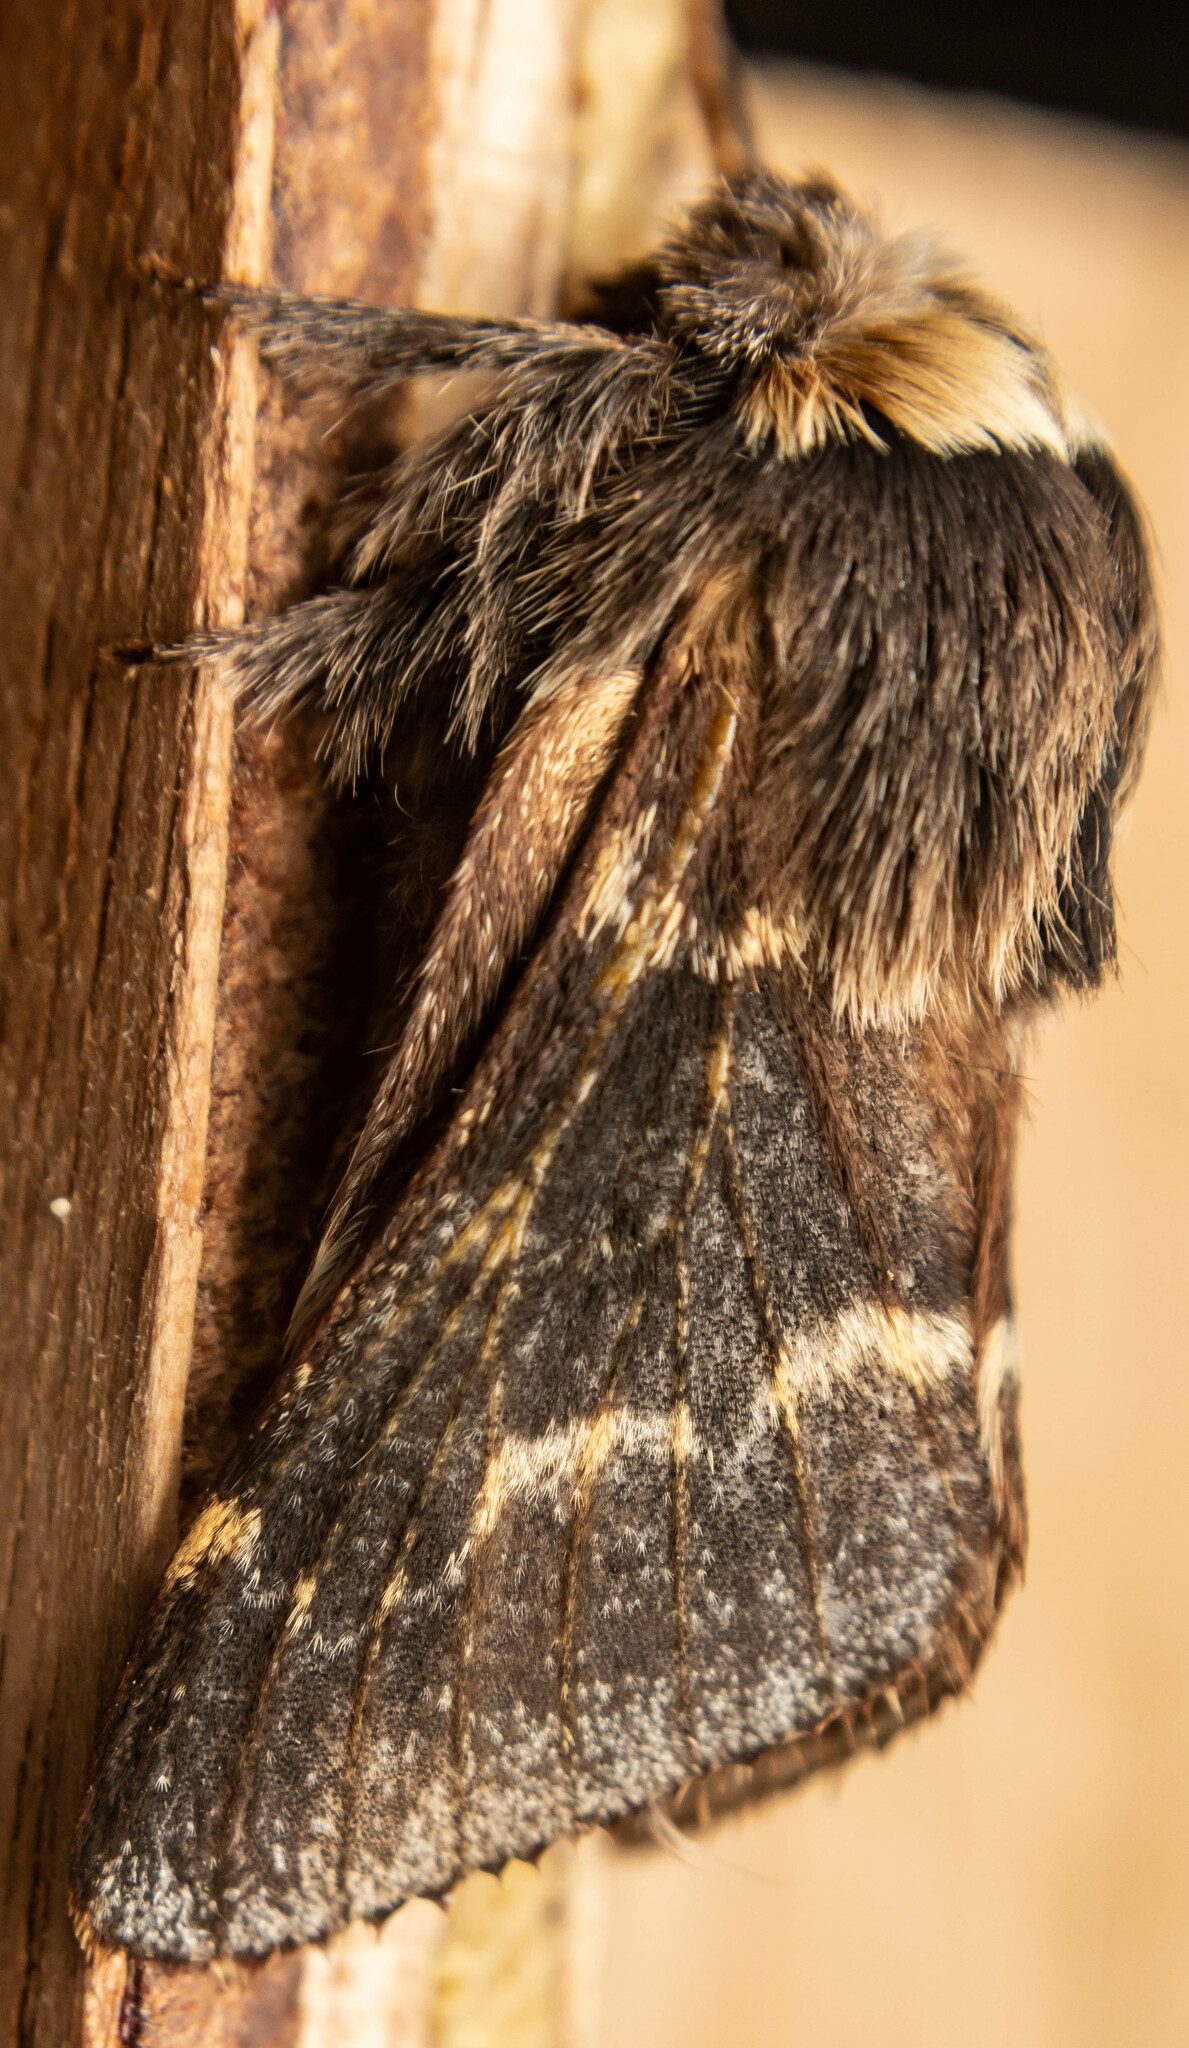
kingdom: Animalia
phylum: Arthropoda
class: Insecta
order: Lepidoptera
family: Lasiocampidae
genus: Poecilocampa
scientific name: Poecilocampa populi
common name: December moth
